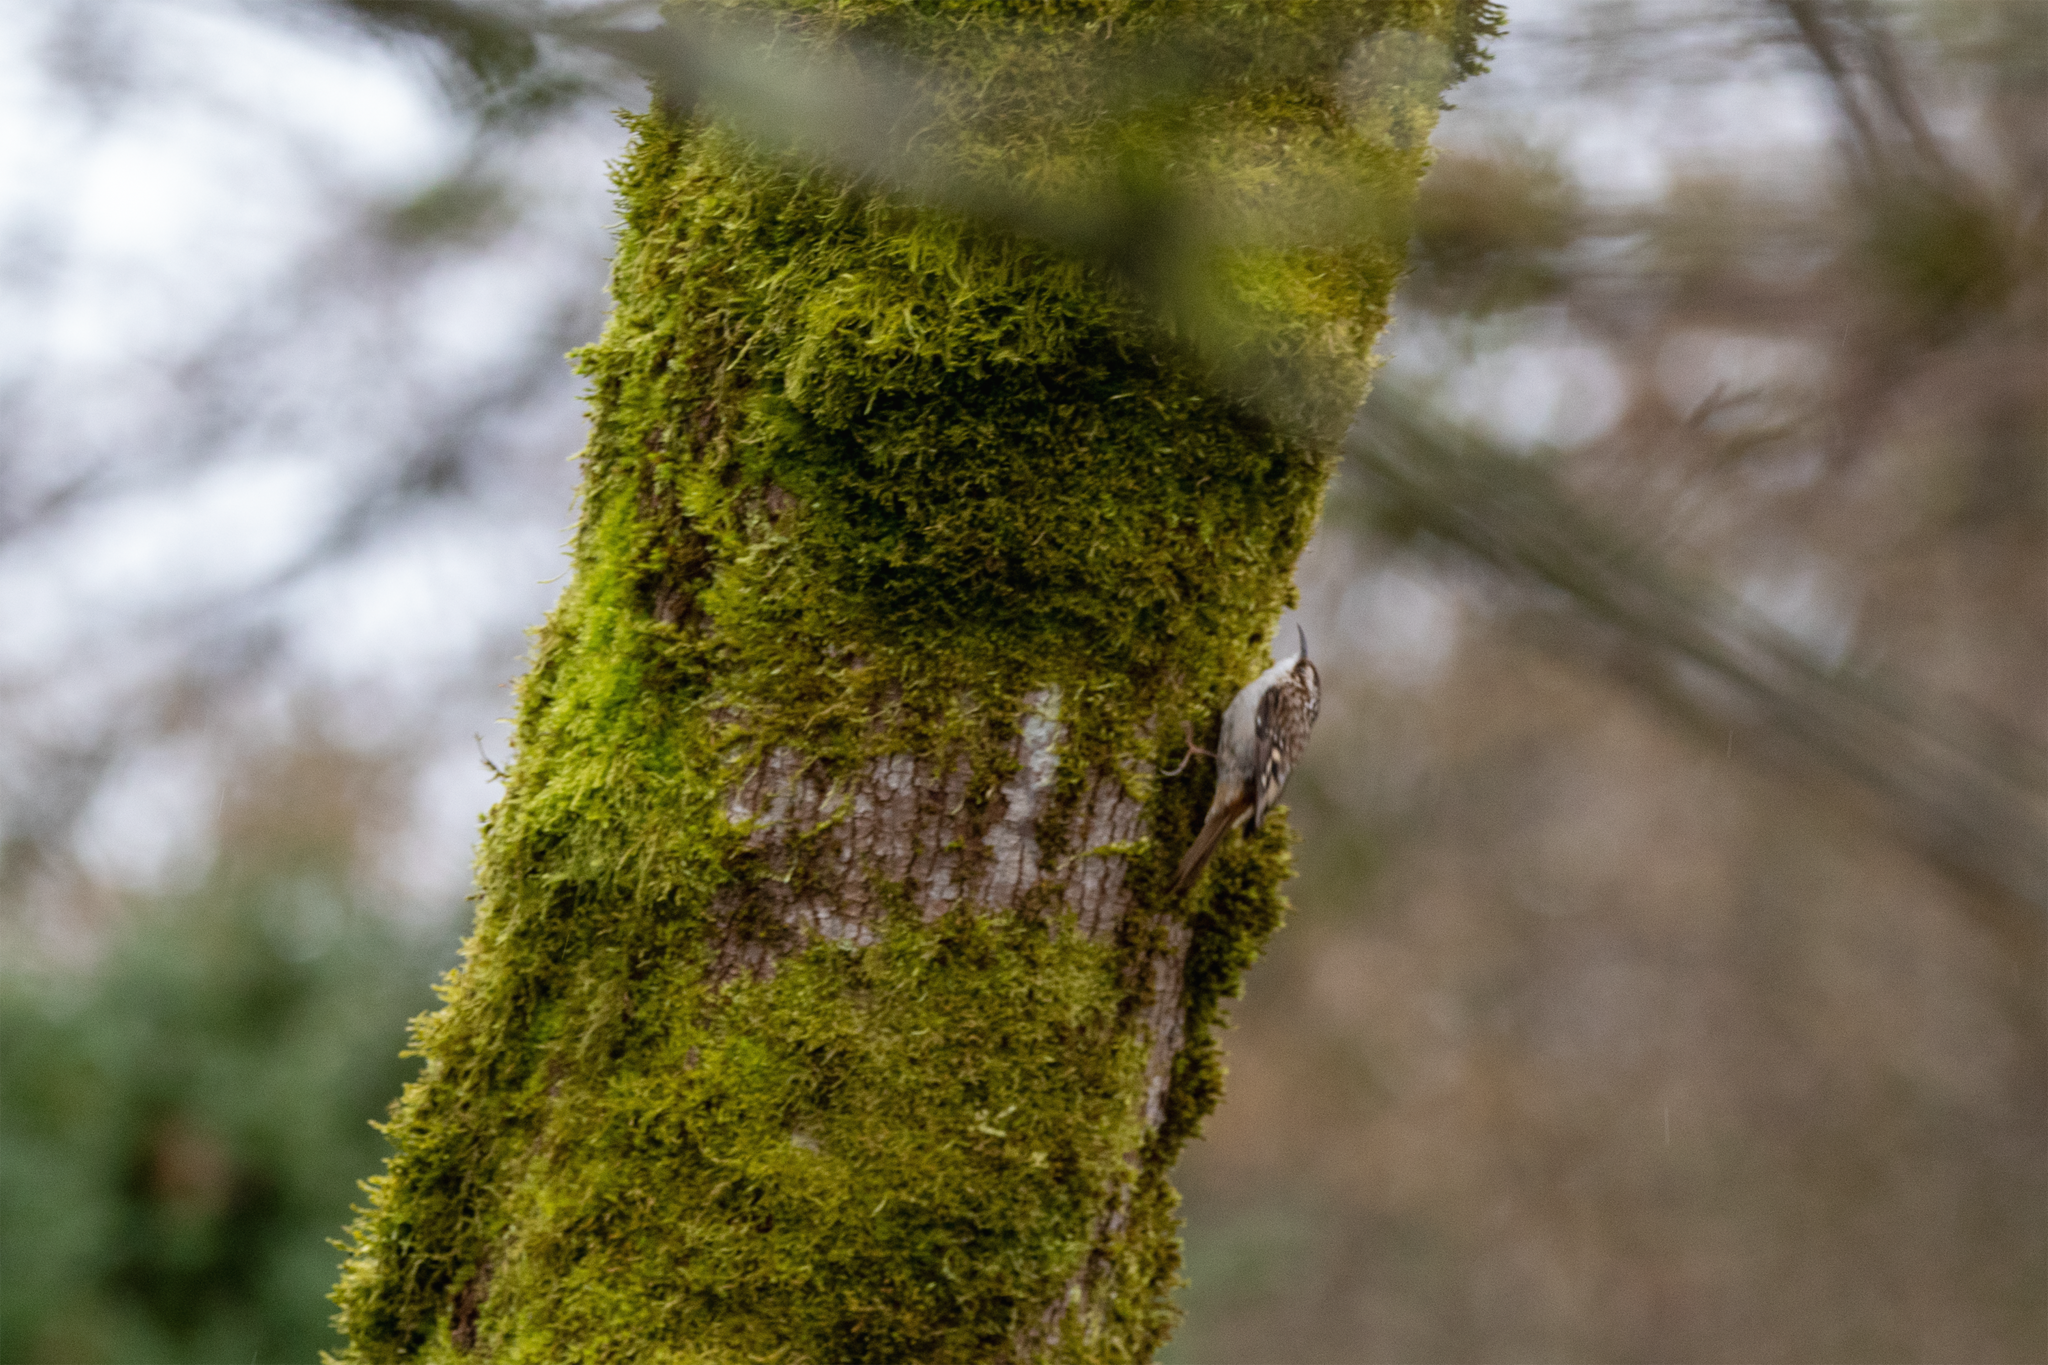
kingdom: Animalia
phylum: Chordata
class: Aves
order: Passeriformes
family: Certhiidae
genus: Certhia
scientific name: Certhia americana
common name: Brown creeper
